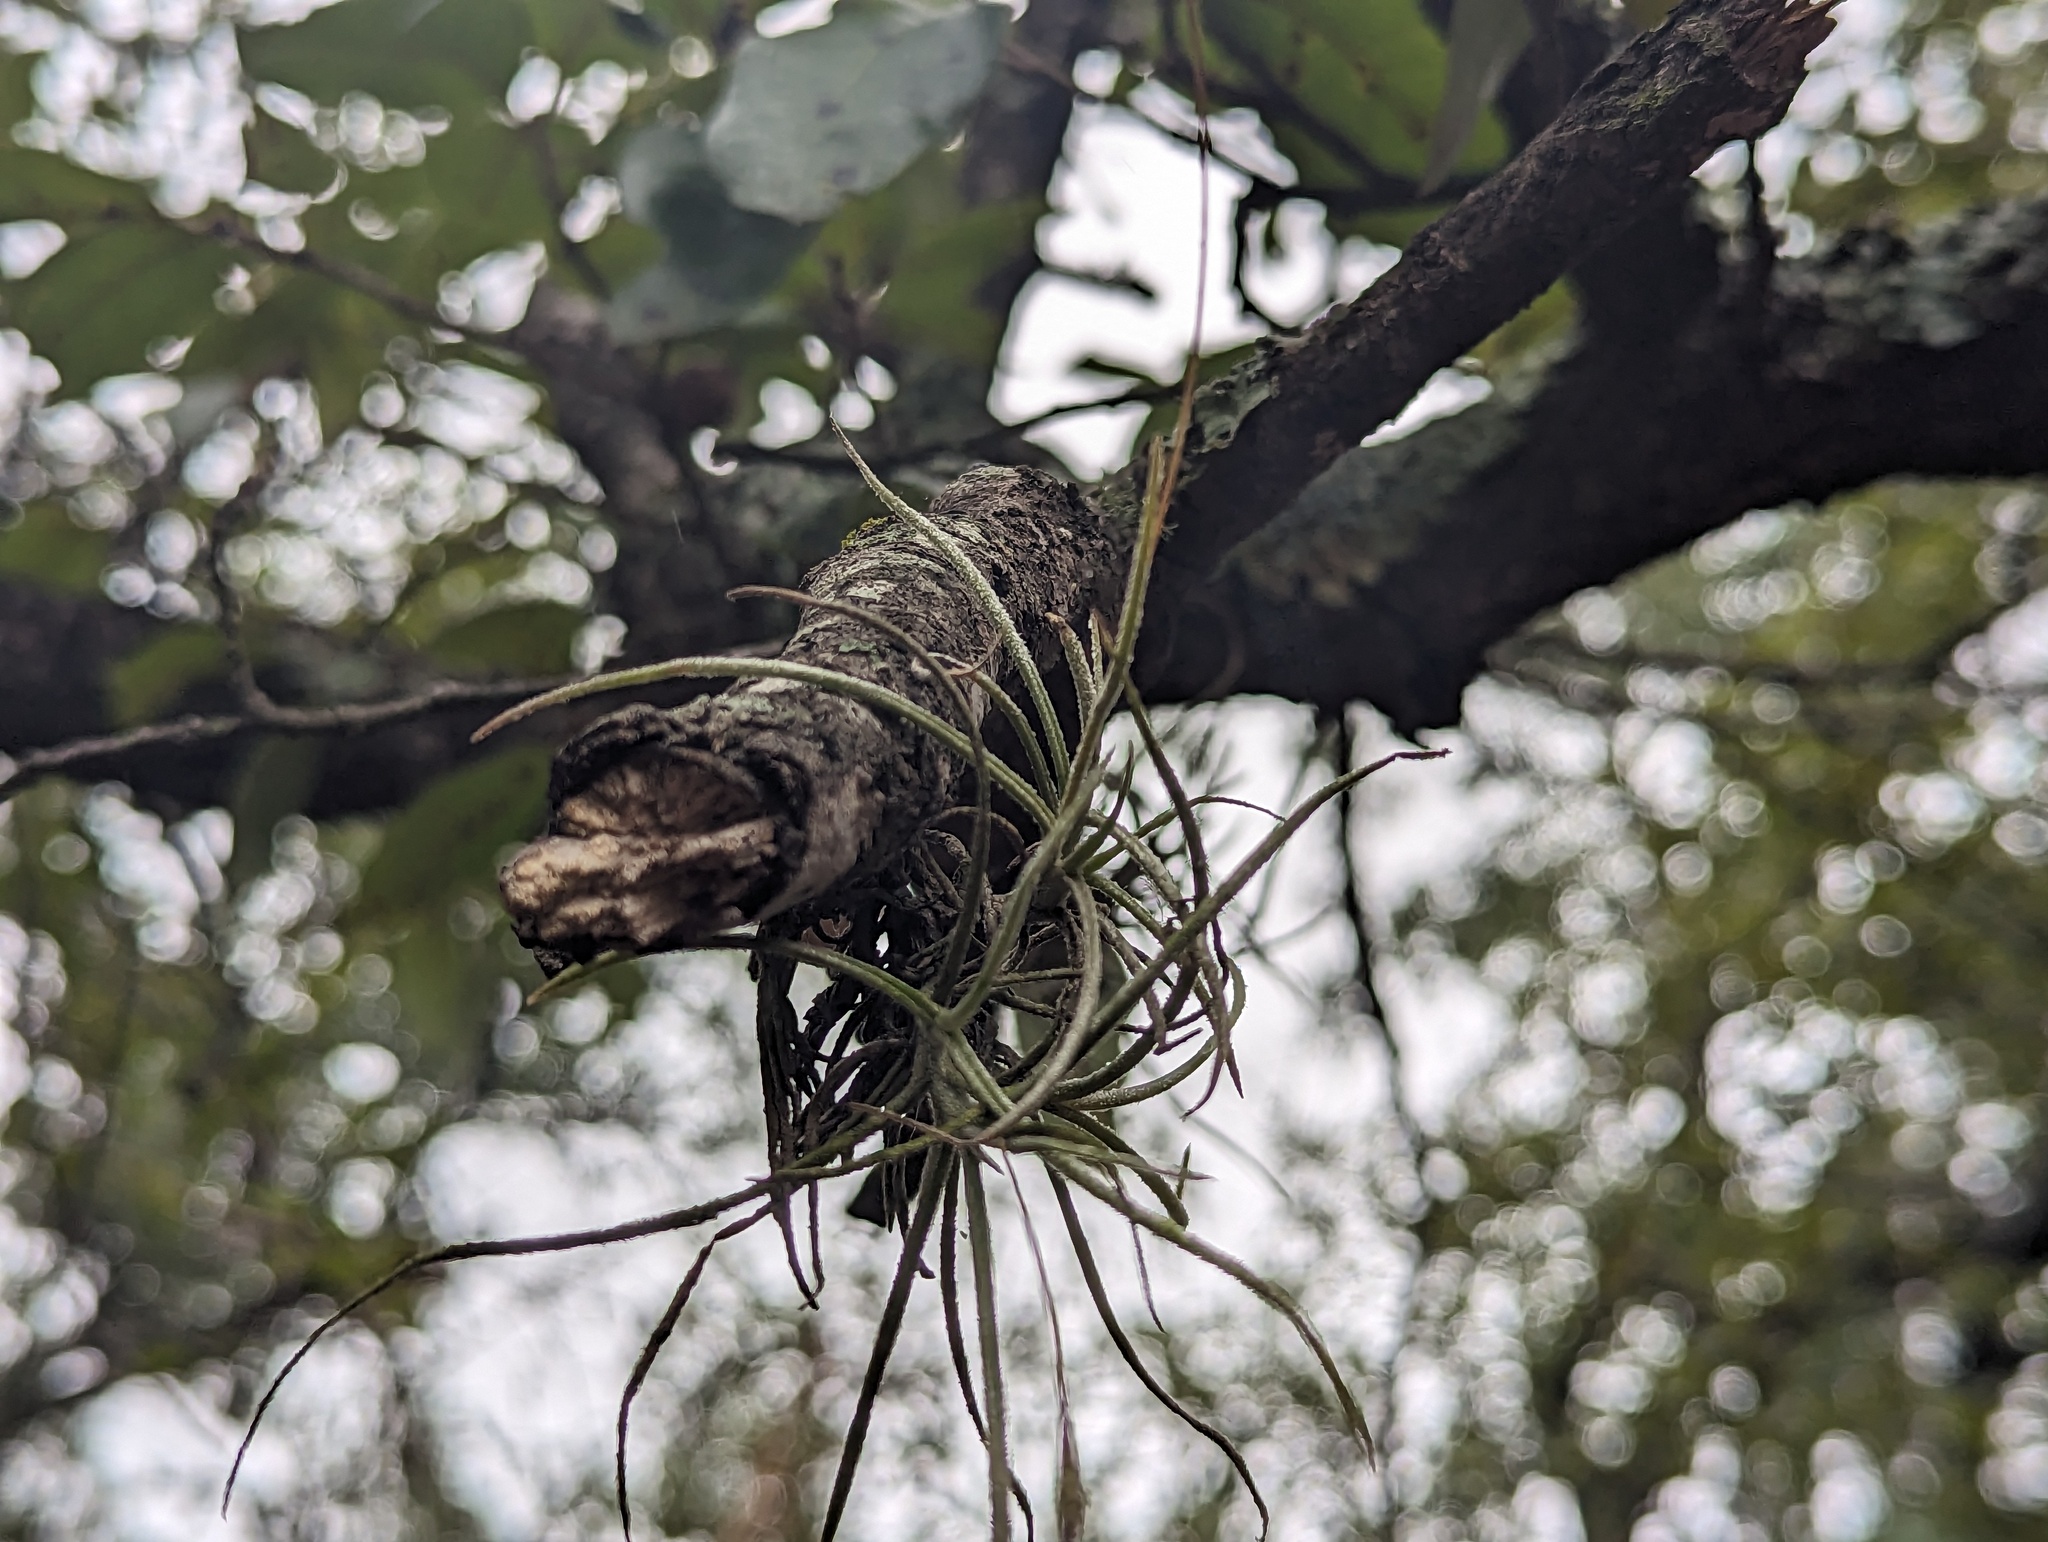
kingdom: Plantae
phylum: Tracheophyta
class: Liliopsida
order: Poales
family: Bromeliaceae
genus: Tillandsia
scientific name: Tillandsia recurvata
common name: Small ballmoss
